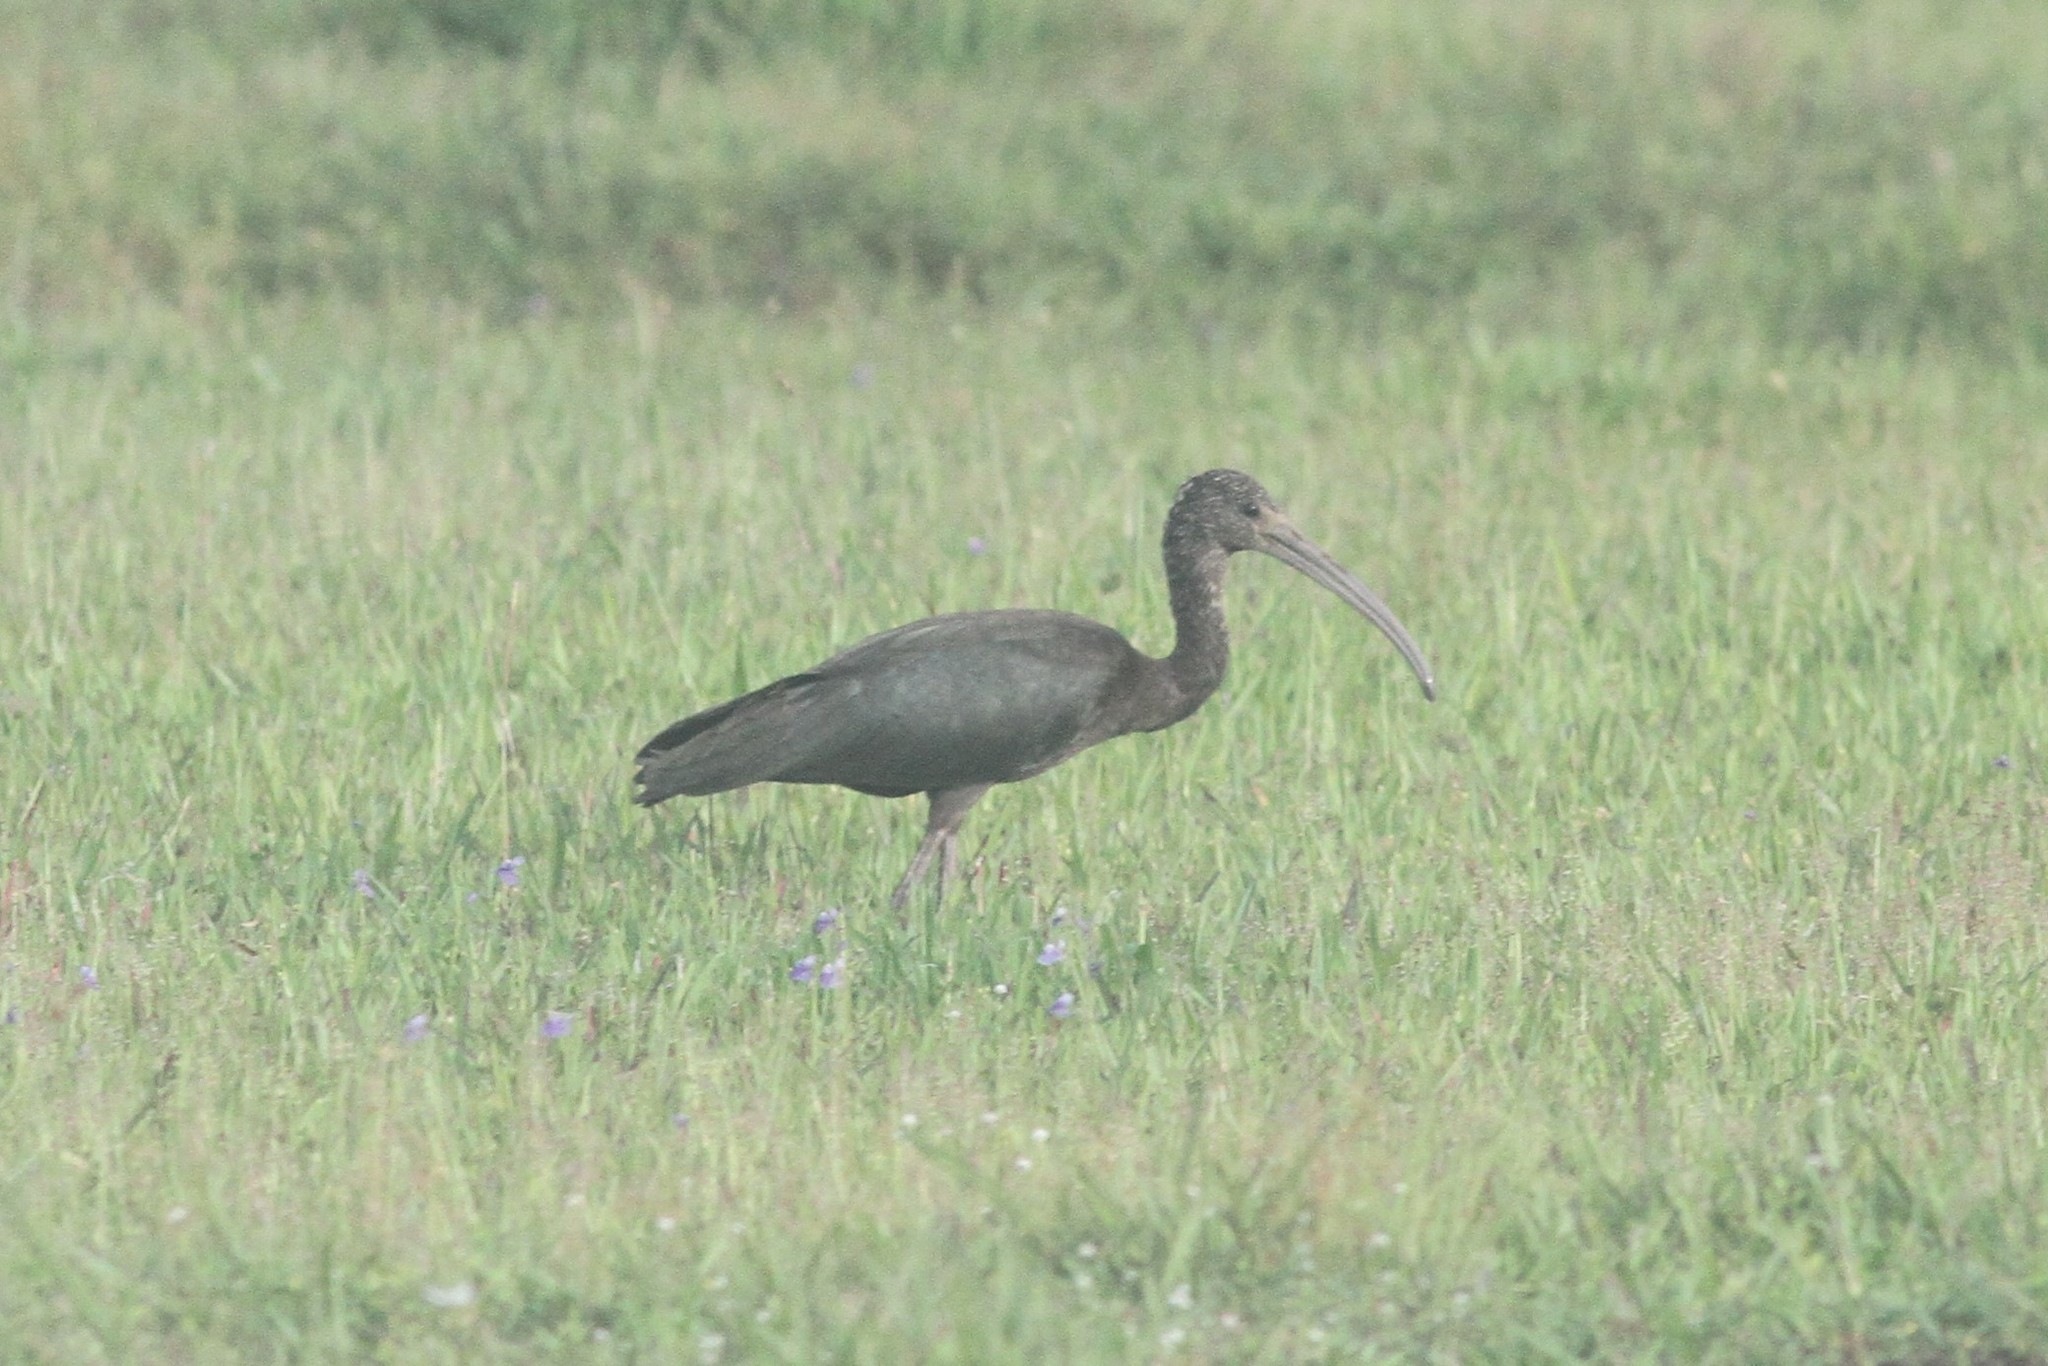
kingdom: Animalia
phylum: Chordata
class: Aves
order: Pelecaniformes
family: Threskiornithidae
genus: Plegadis
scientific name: Plegadis falcinellus
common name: Glossy ibis
